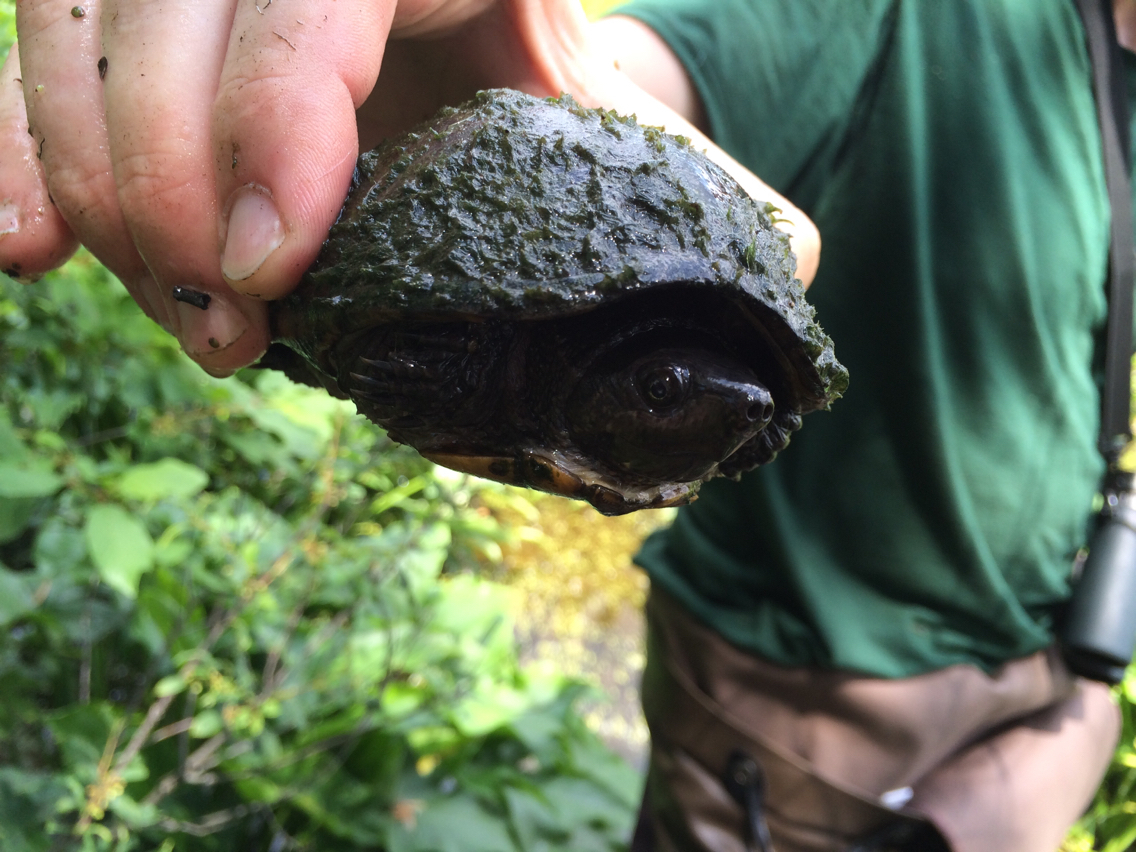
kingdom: Animalia
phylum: Chordata
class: Testudines
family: Kinosternidae
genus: Sternotherus
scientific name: Sternotherus odoratus
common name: Common musk turtle
